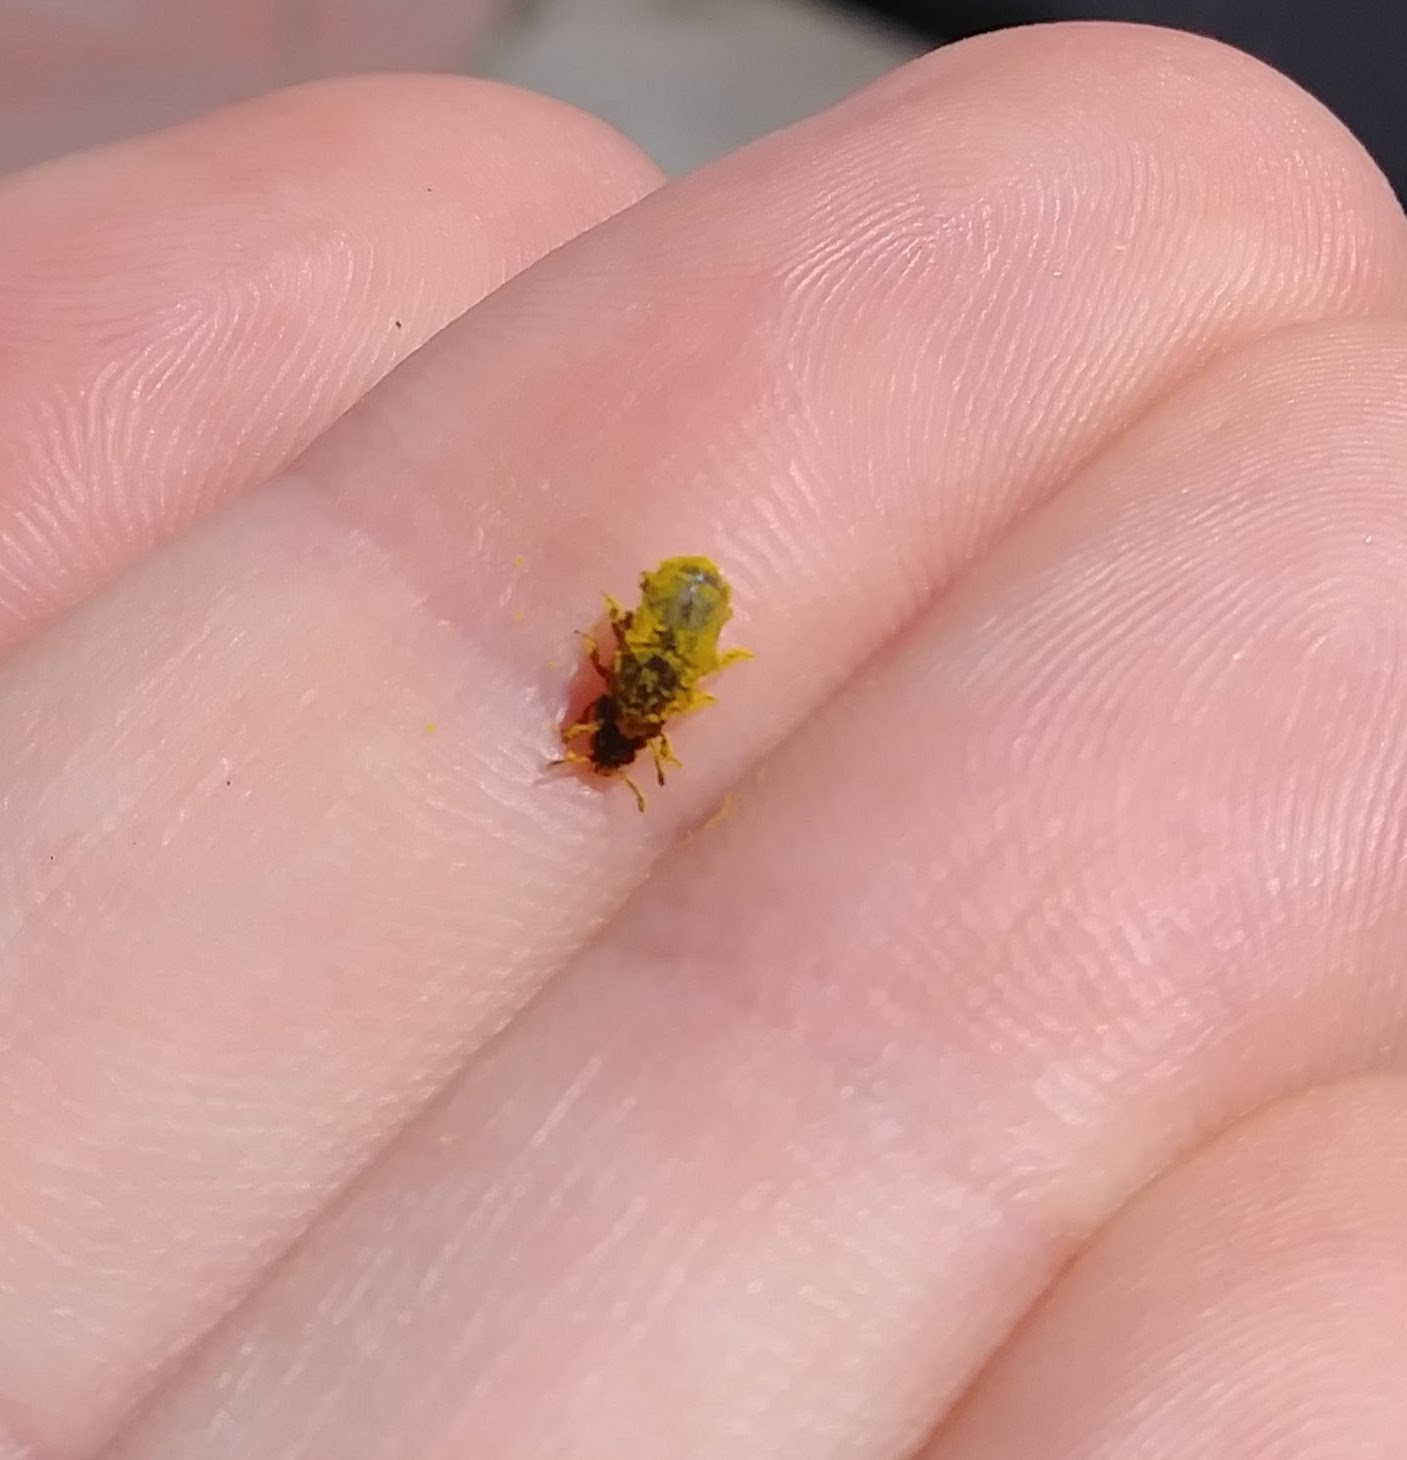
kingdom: Animalia
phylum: Arthropoda
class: Insecta
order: Coleoptera
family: Kateretidae
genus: Amartus
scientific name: Amartus tinctus
